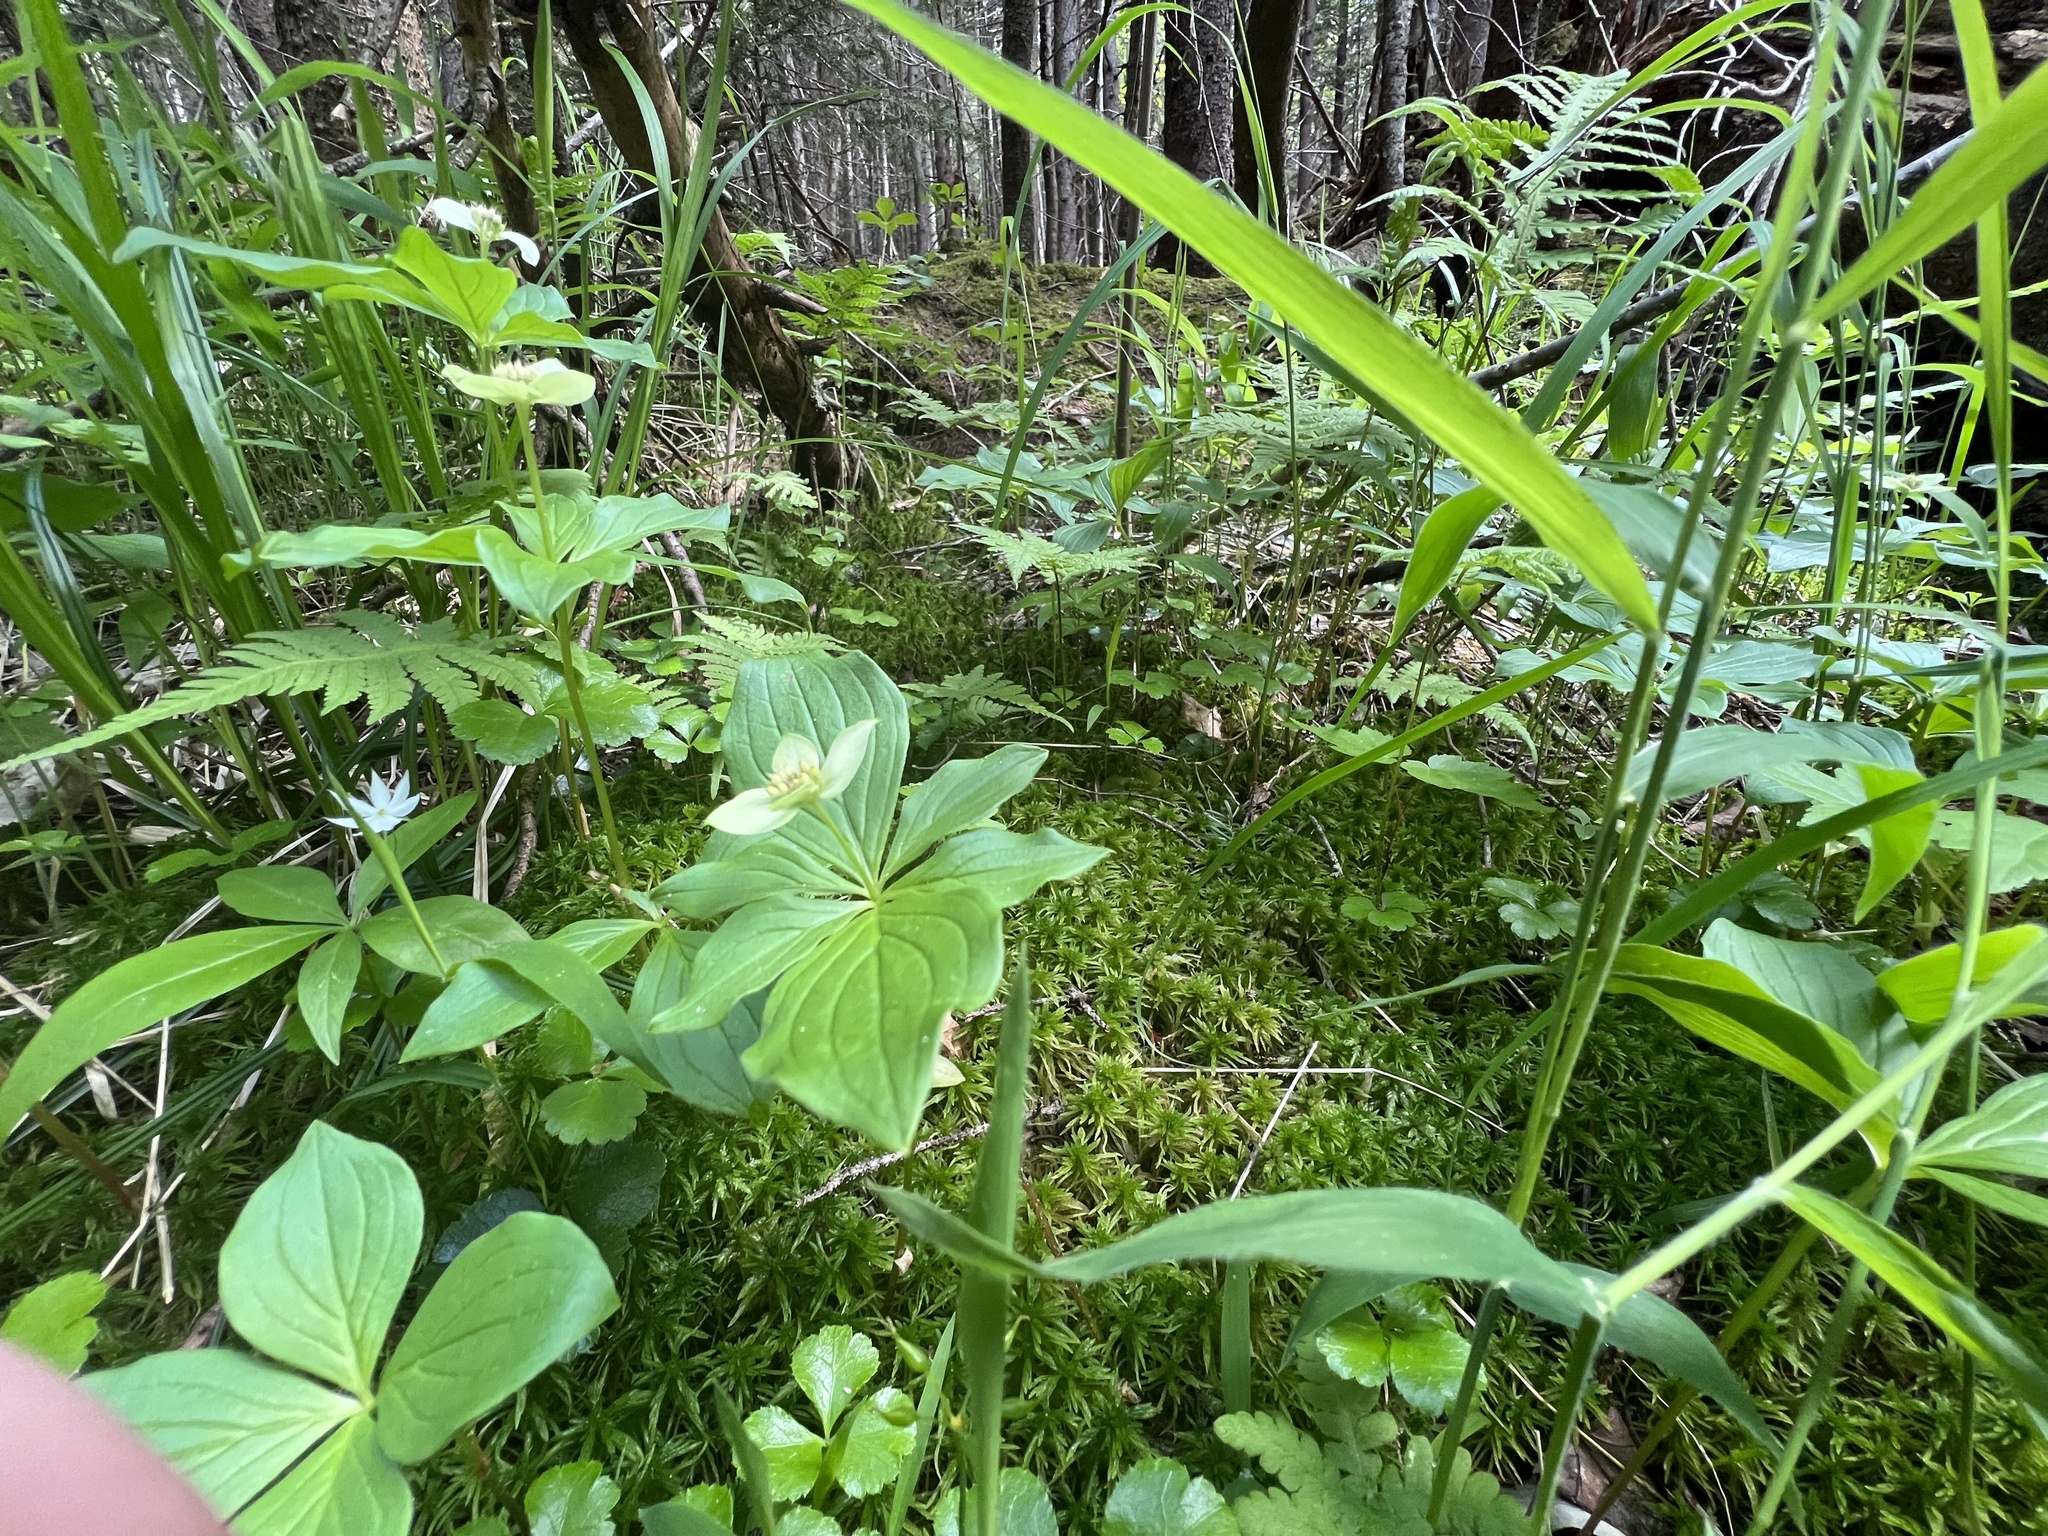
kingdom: Plantae
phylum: Tracheophyta
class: Magnoliopsida
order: Cornales
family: Cornaceae
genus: Cornus
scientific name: Cornus canadensis
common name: Creeping dogwood
